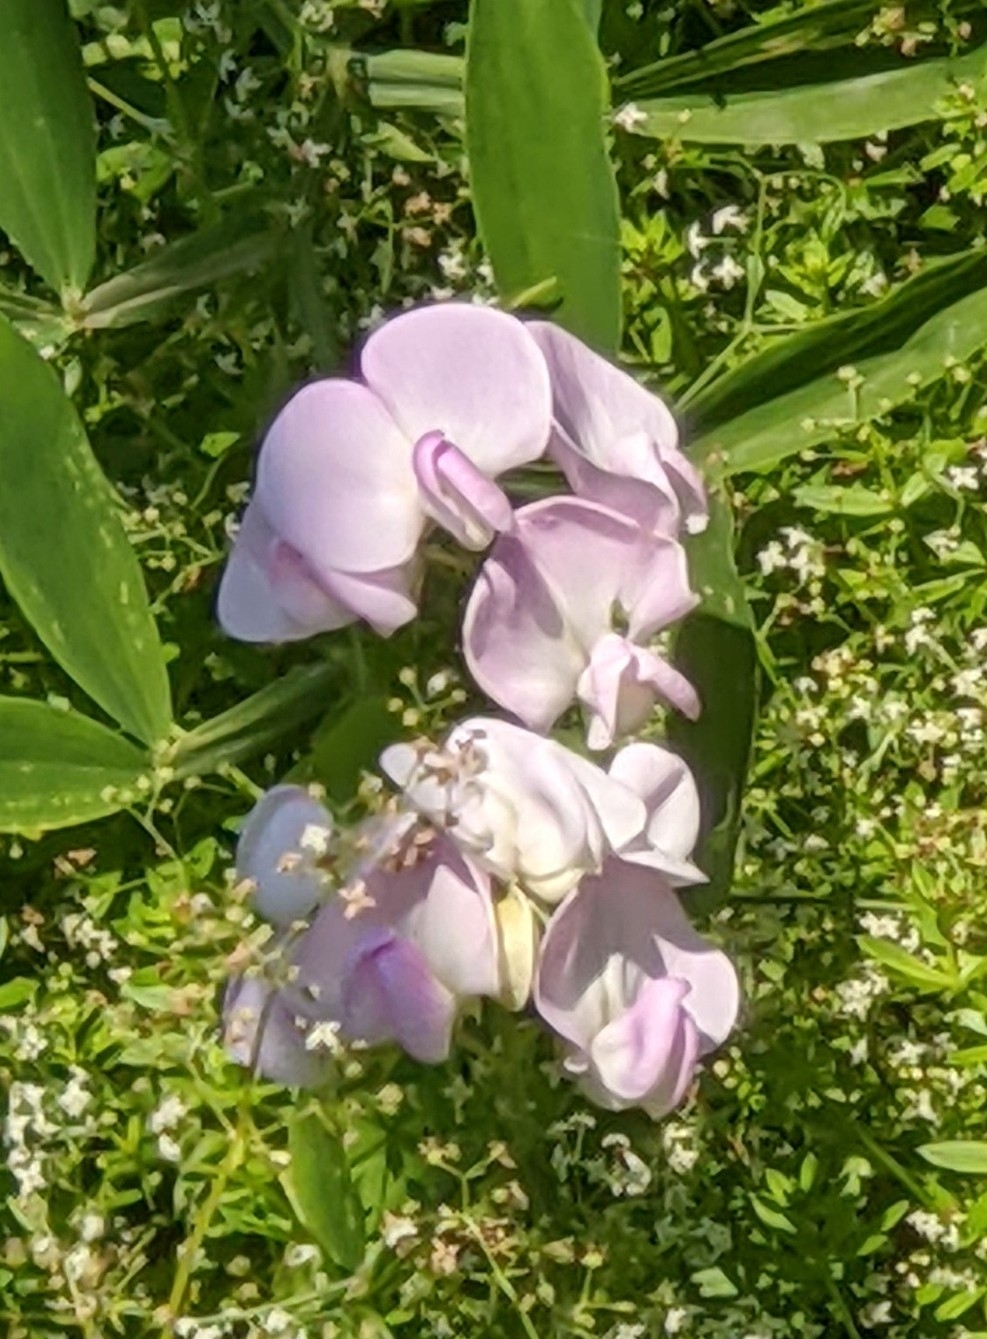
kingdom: Plantae
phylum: Tracheophyta
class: Magnoliopsida
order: Fabales
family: Fabaceae
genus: Lathyrus
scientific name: Lathyrus latifolius
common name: Perennial pea
